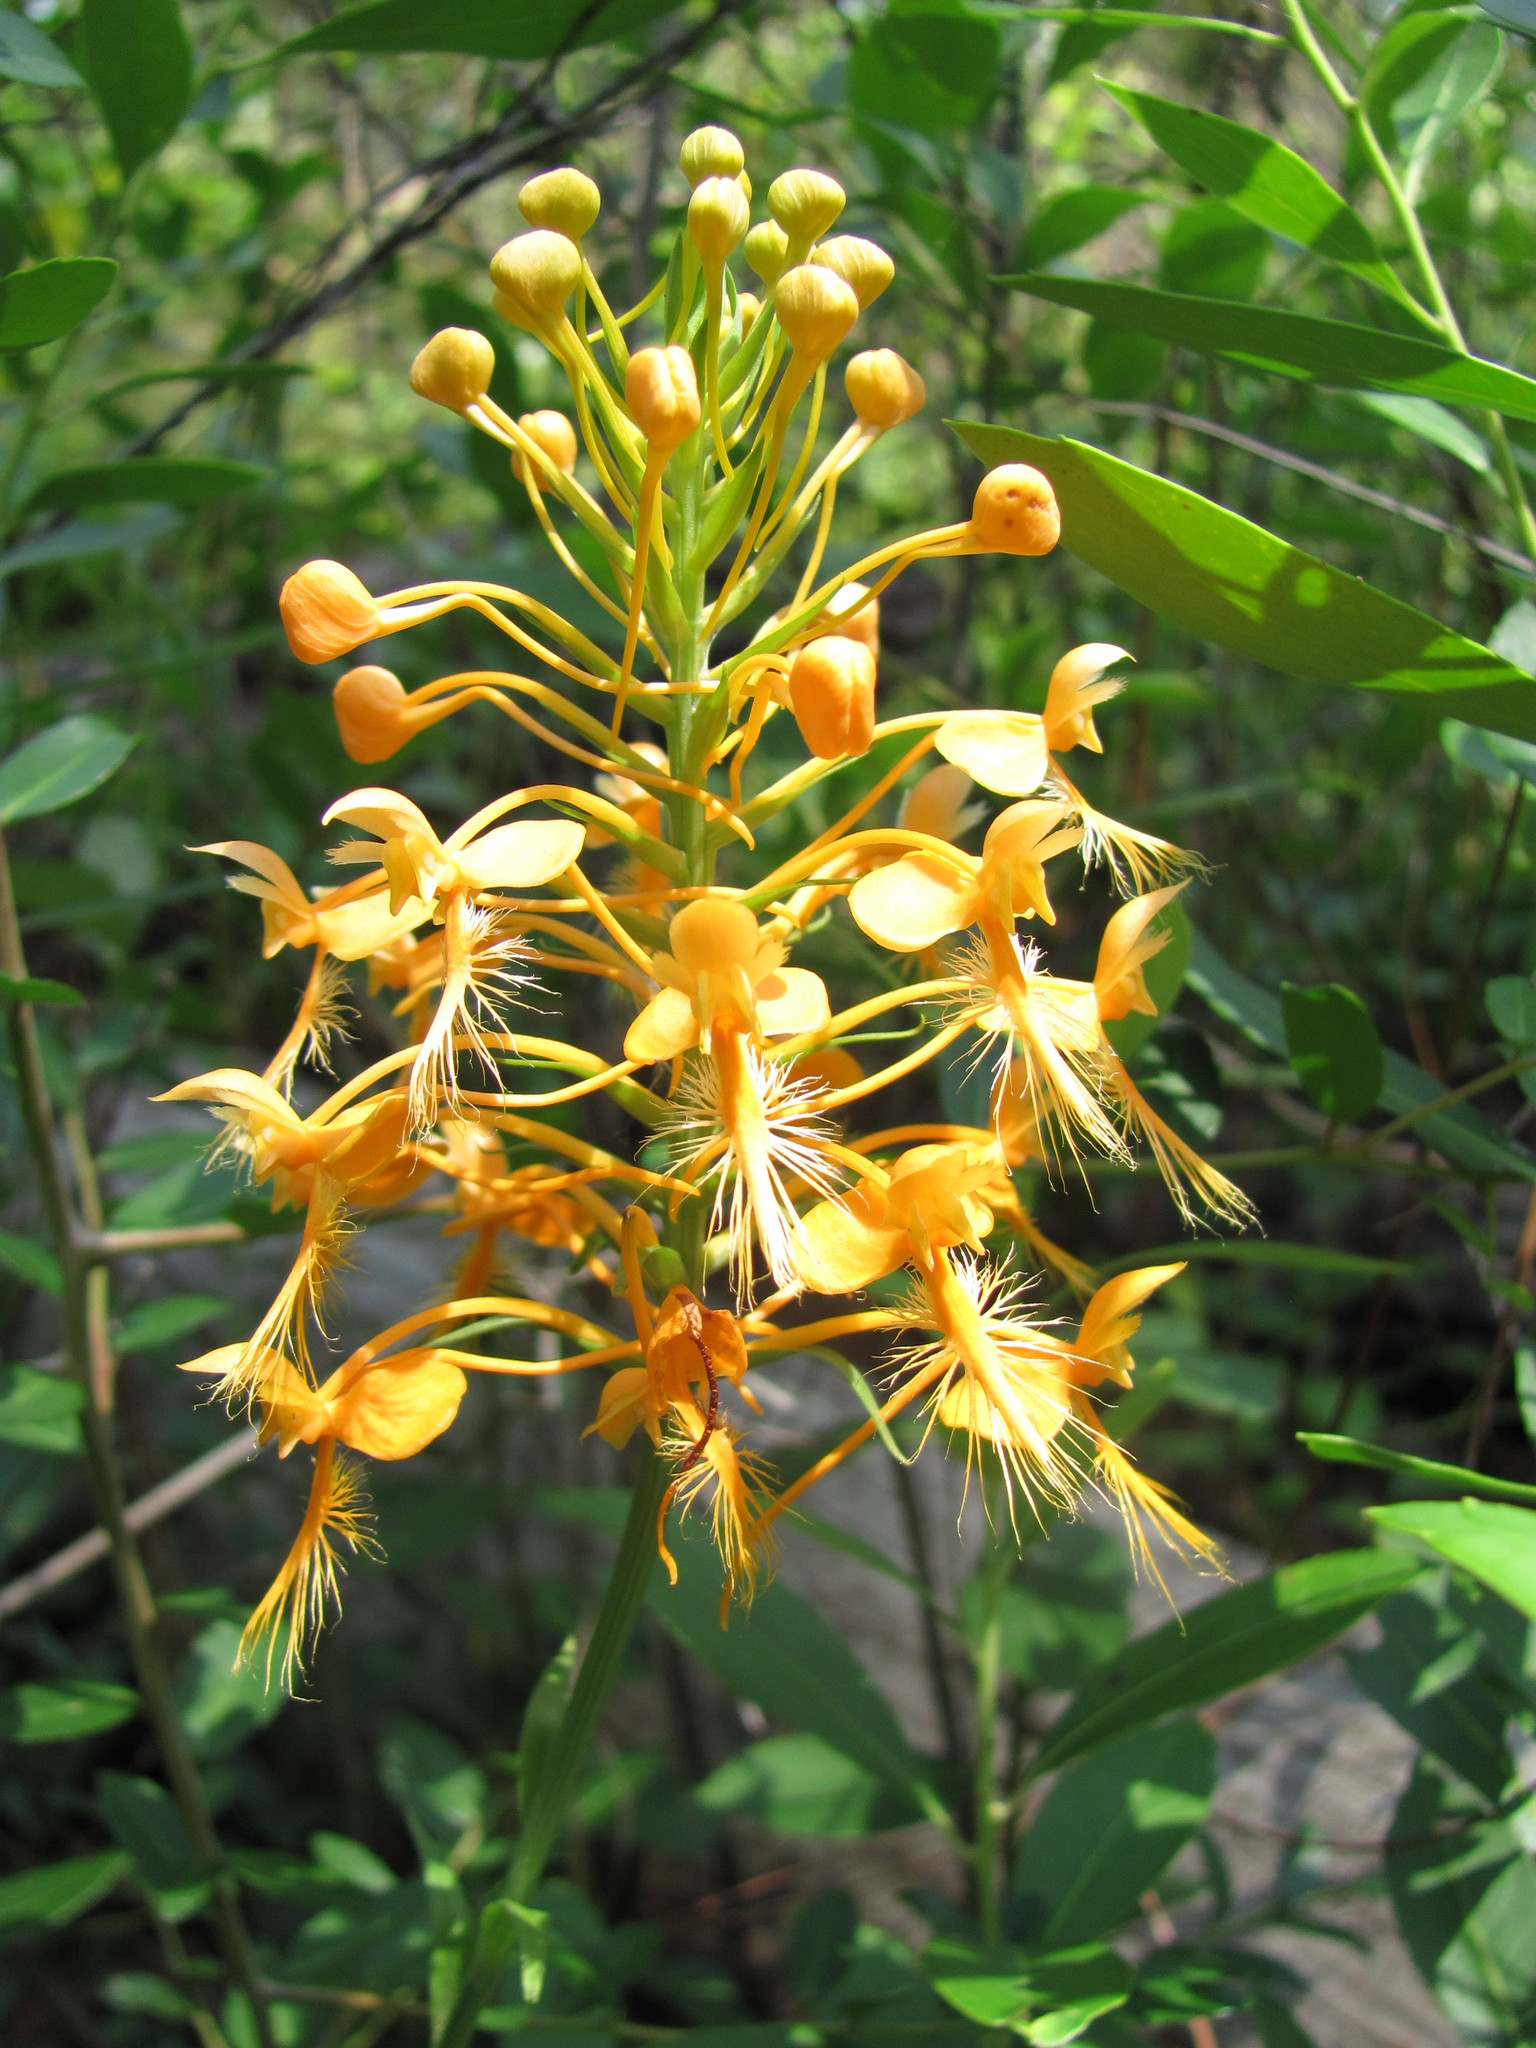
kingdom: Plantae
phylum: Tracheophyta
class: Liliopsida
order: Asparagales
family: Orchidaceae
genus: Platanthera
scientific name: Platanthera ciliaris
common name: Yellow fringed orchid
